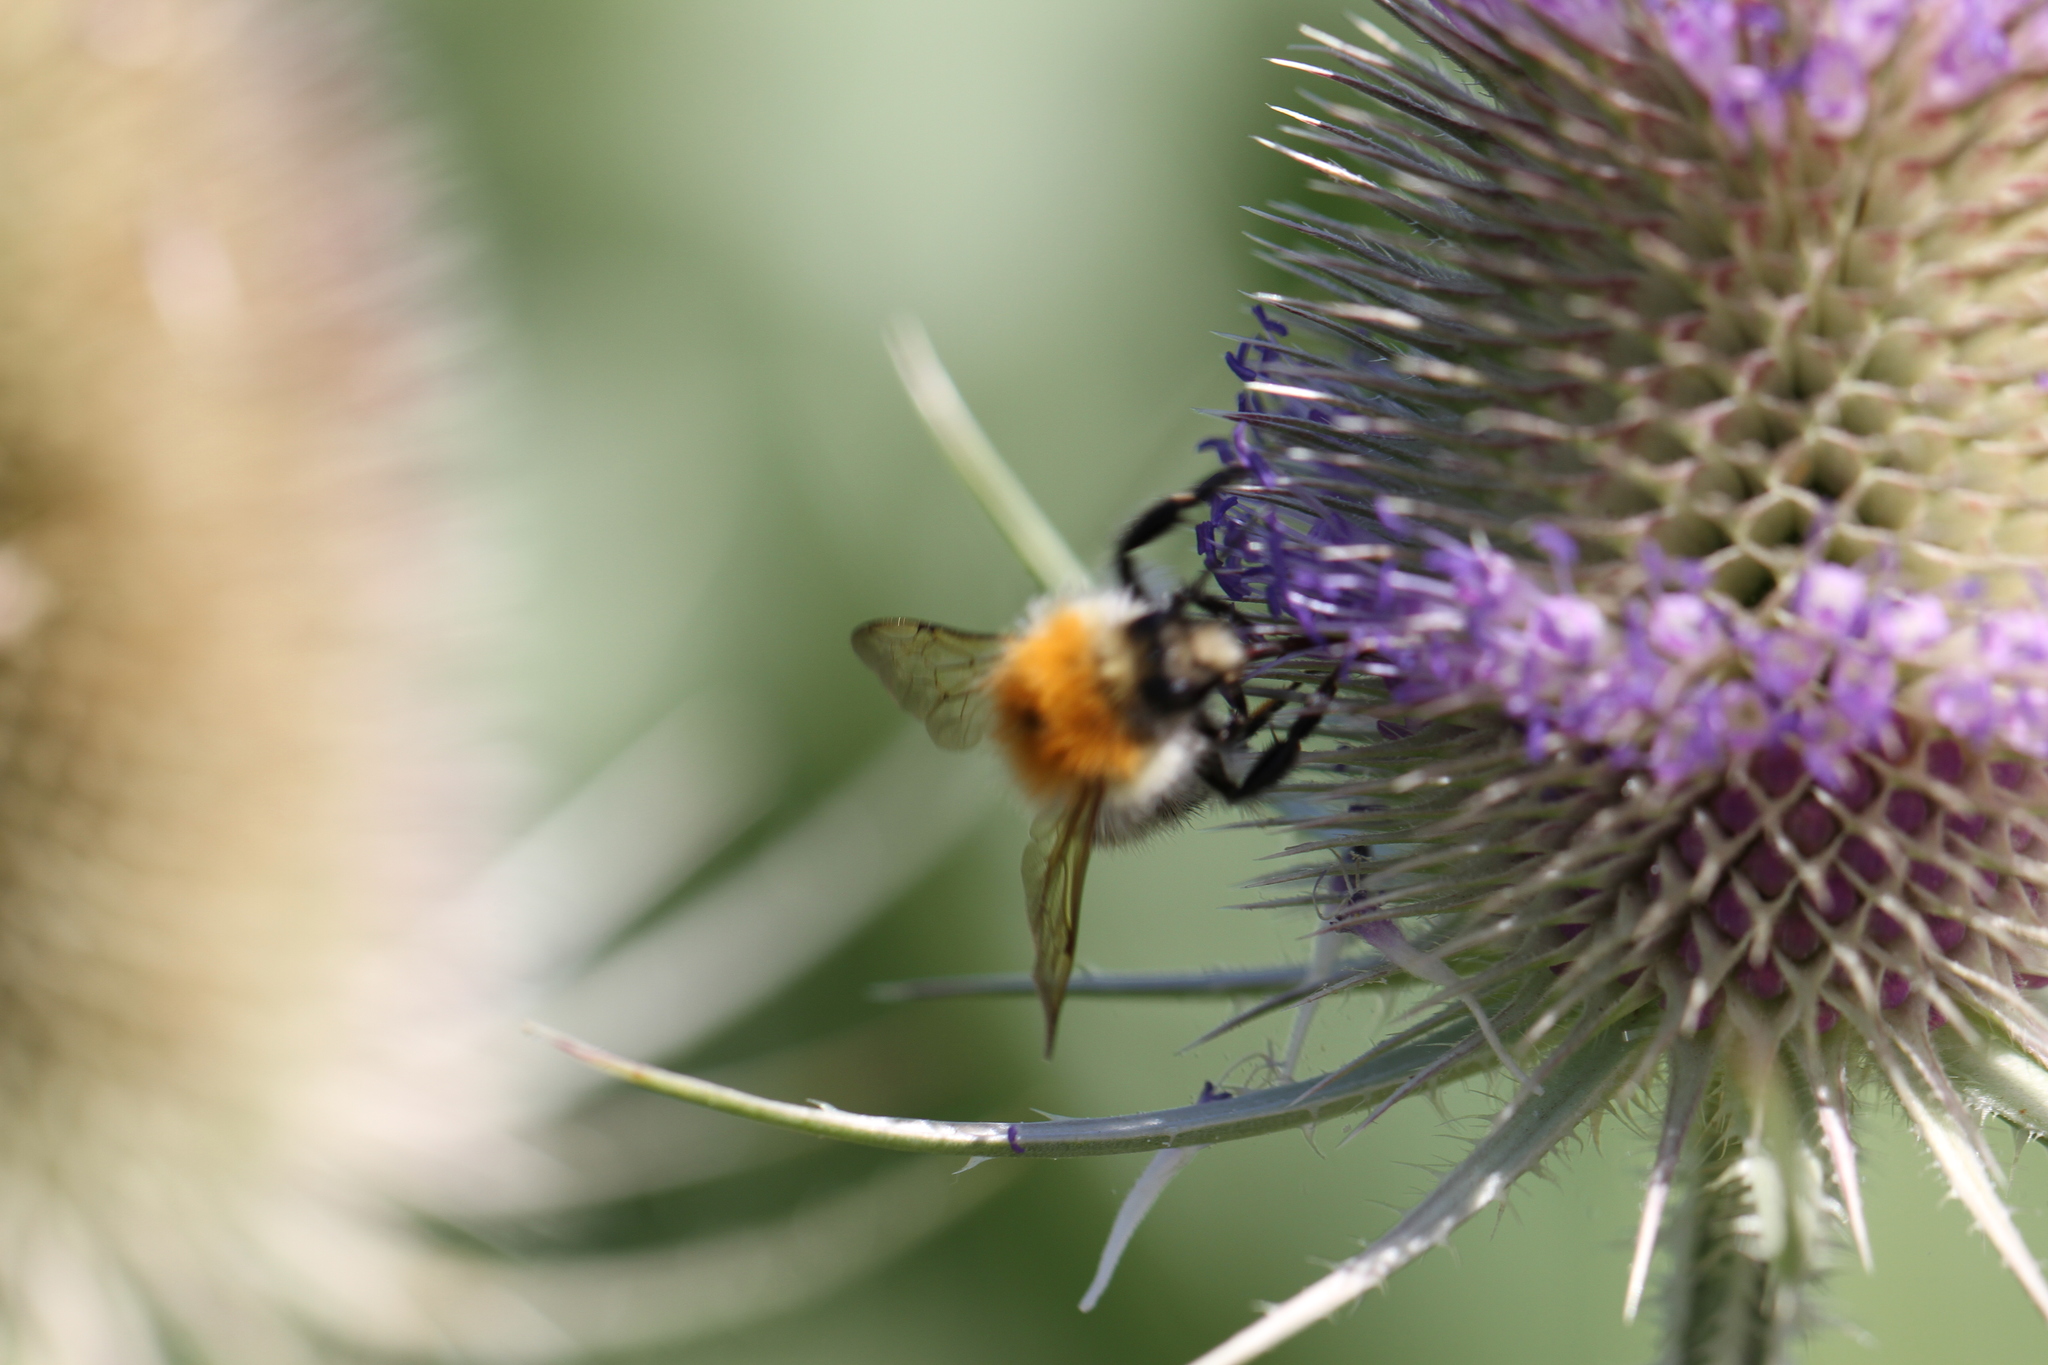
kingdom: Animalia
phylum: Arthropoda
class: Insecta
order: Hymenoptera
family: Apidae
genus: Bombus
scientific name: Bombus pascuorum
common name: Common carder bee
